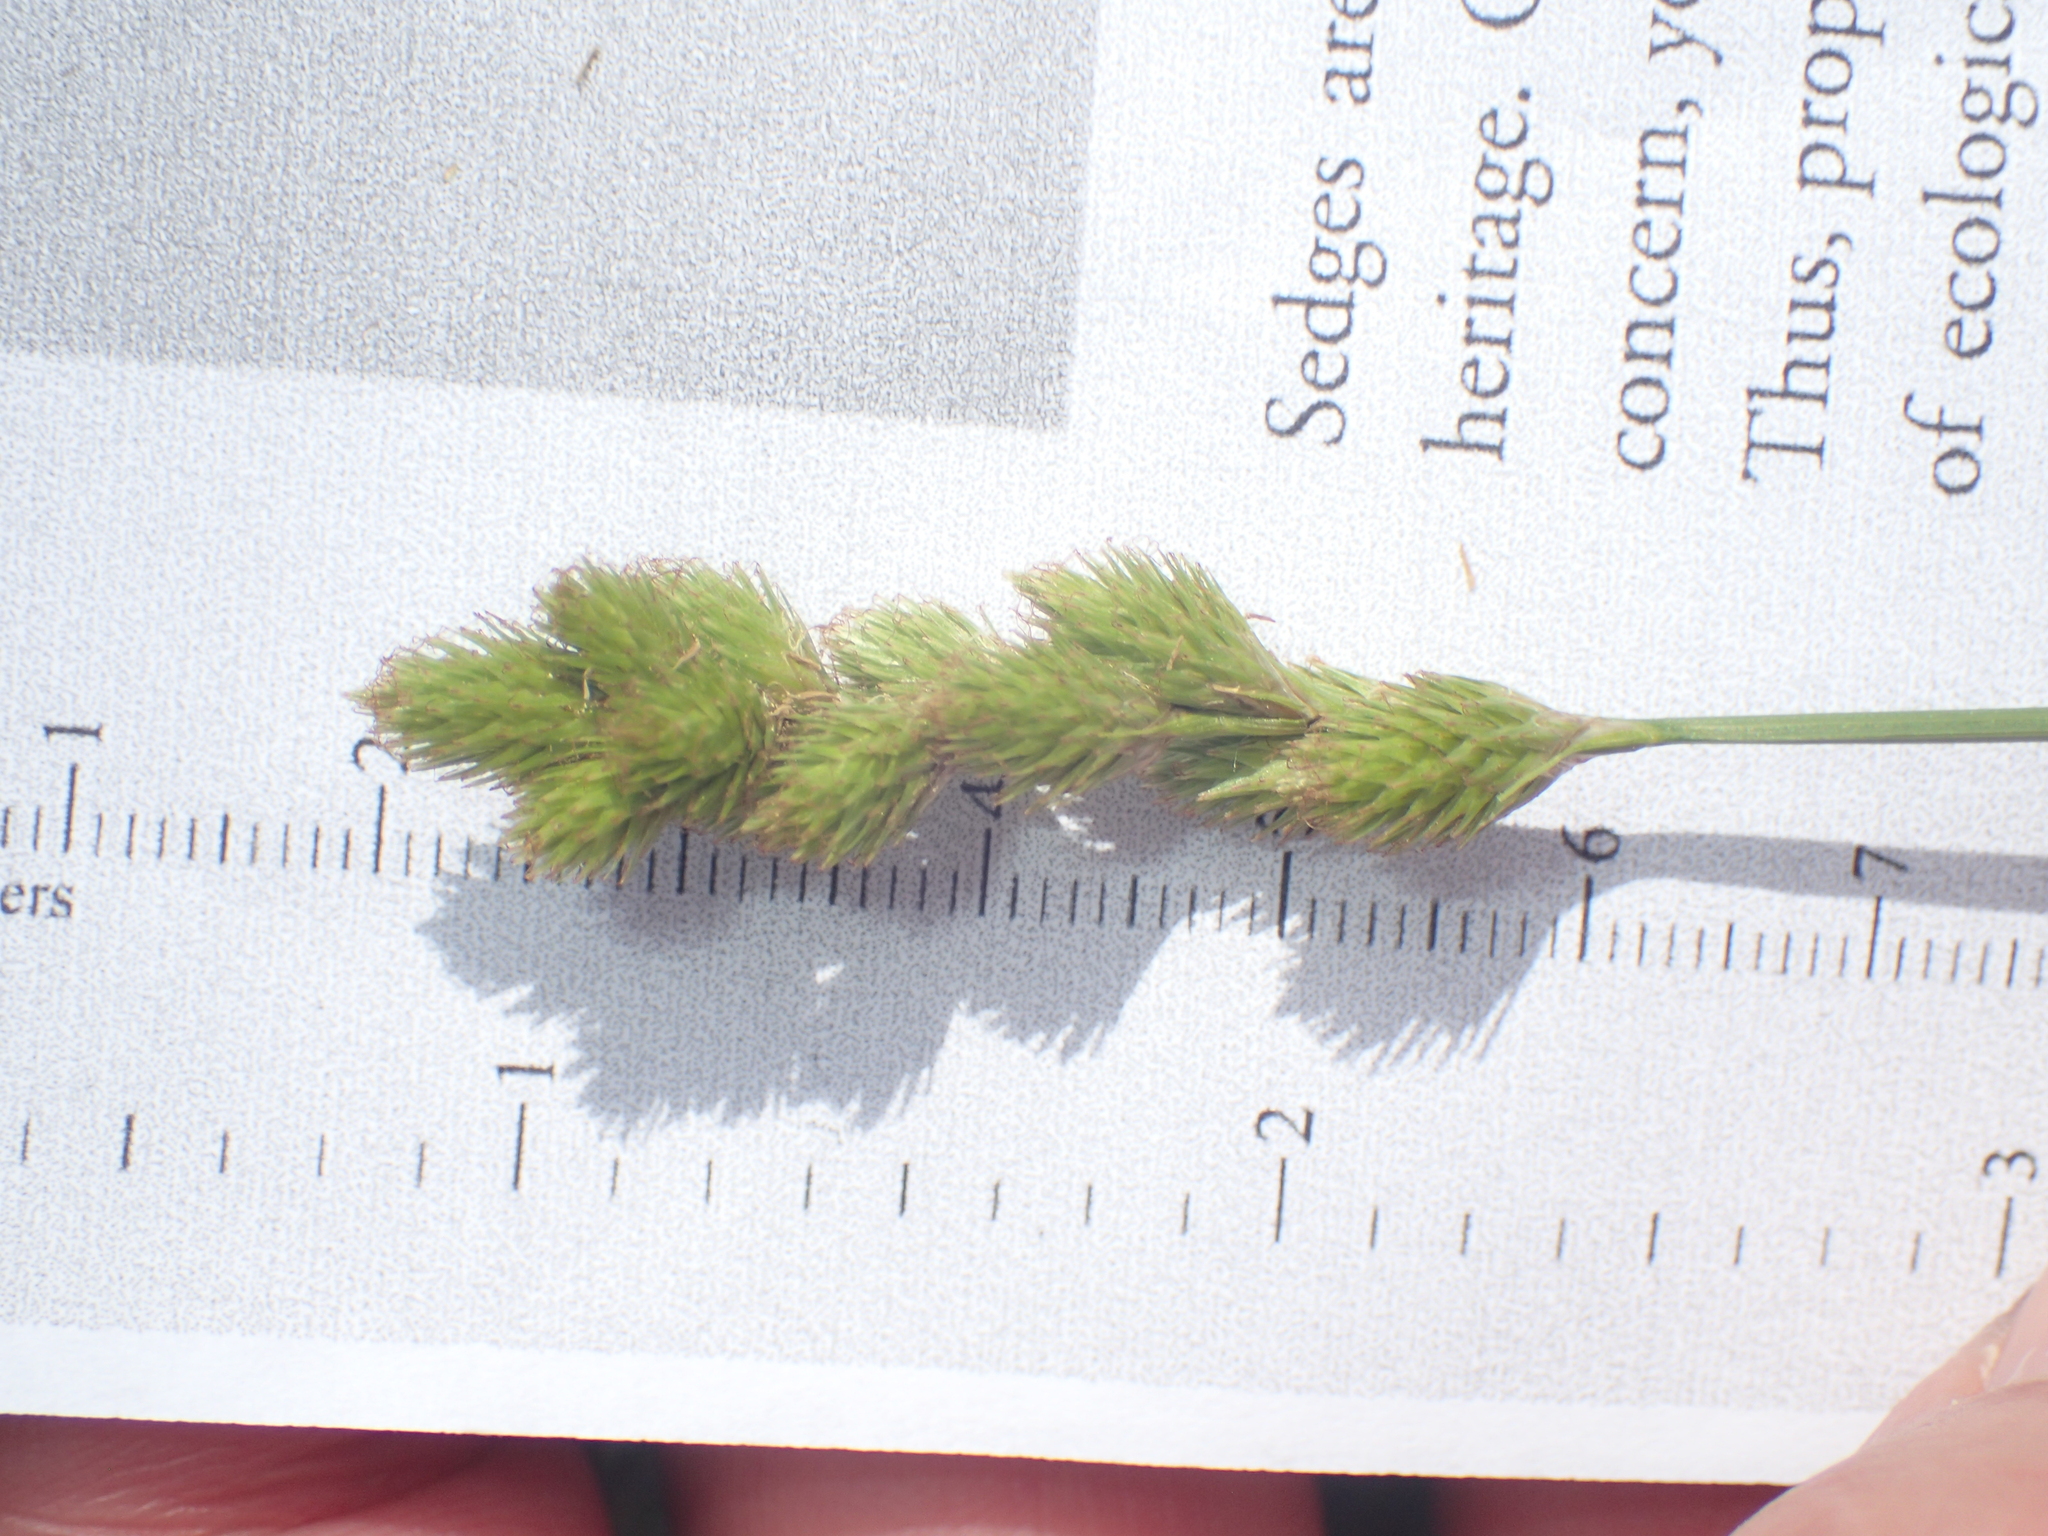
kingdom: Plantae
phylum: Tracheophyta
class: Liliopsida
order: Poales
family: Cyperaceae
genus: Carex
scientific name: Carex tribuloides
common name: Blunt broom sedge
